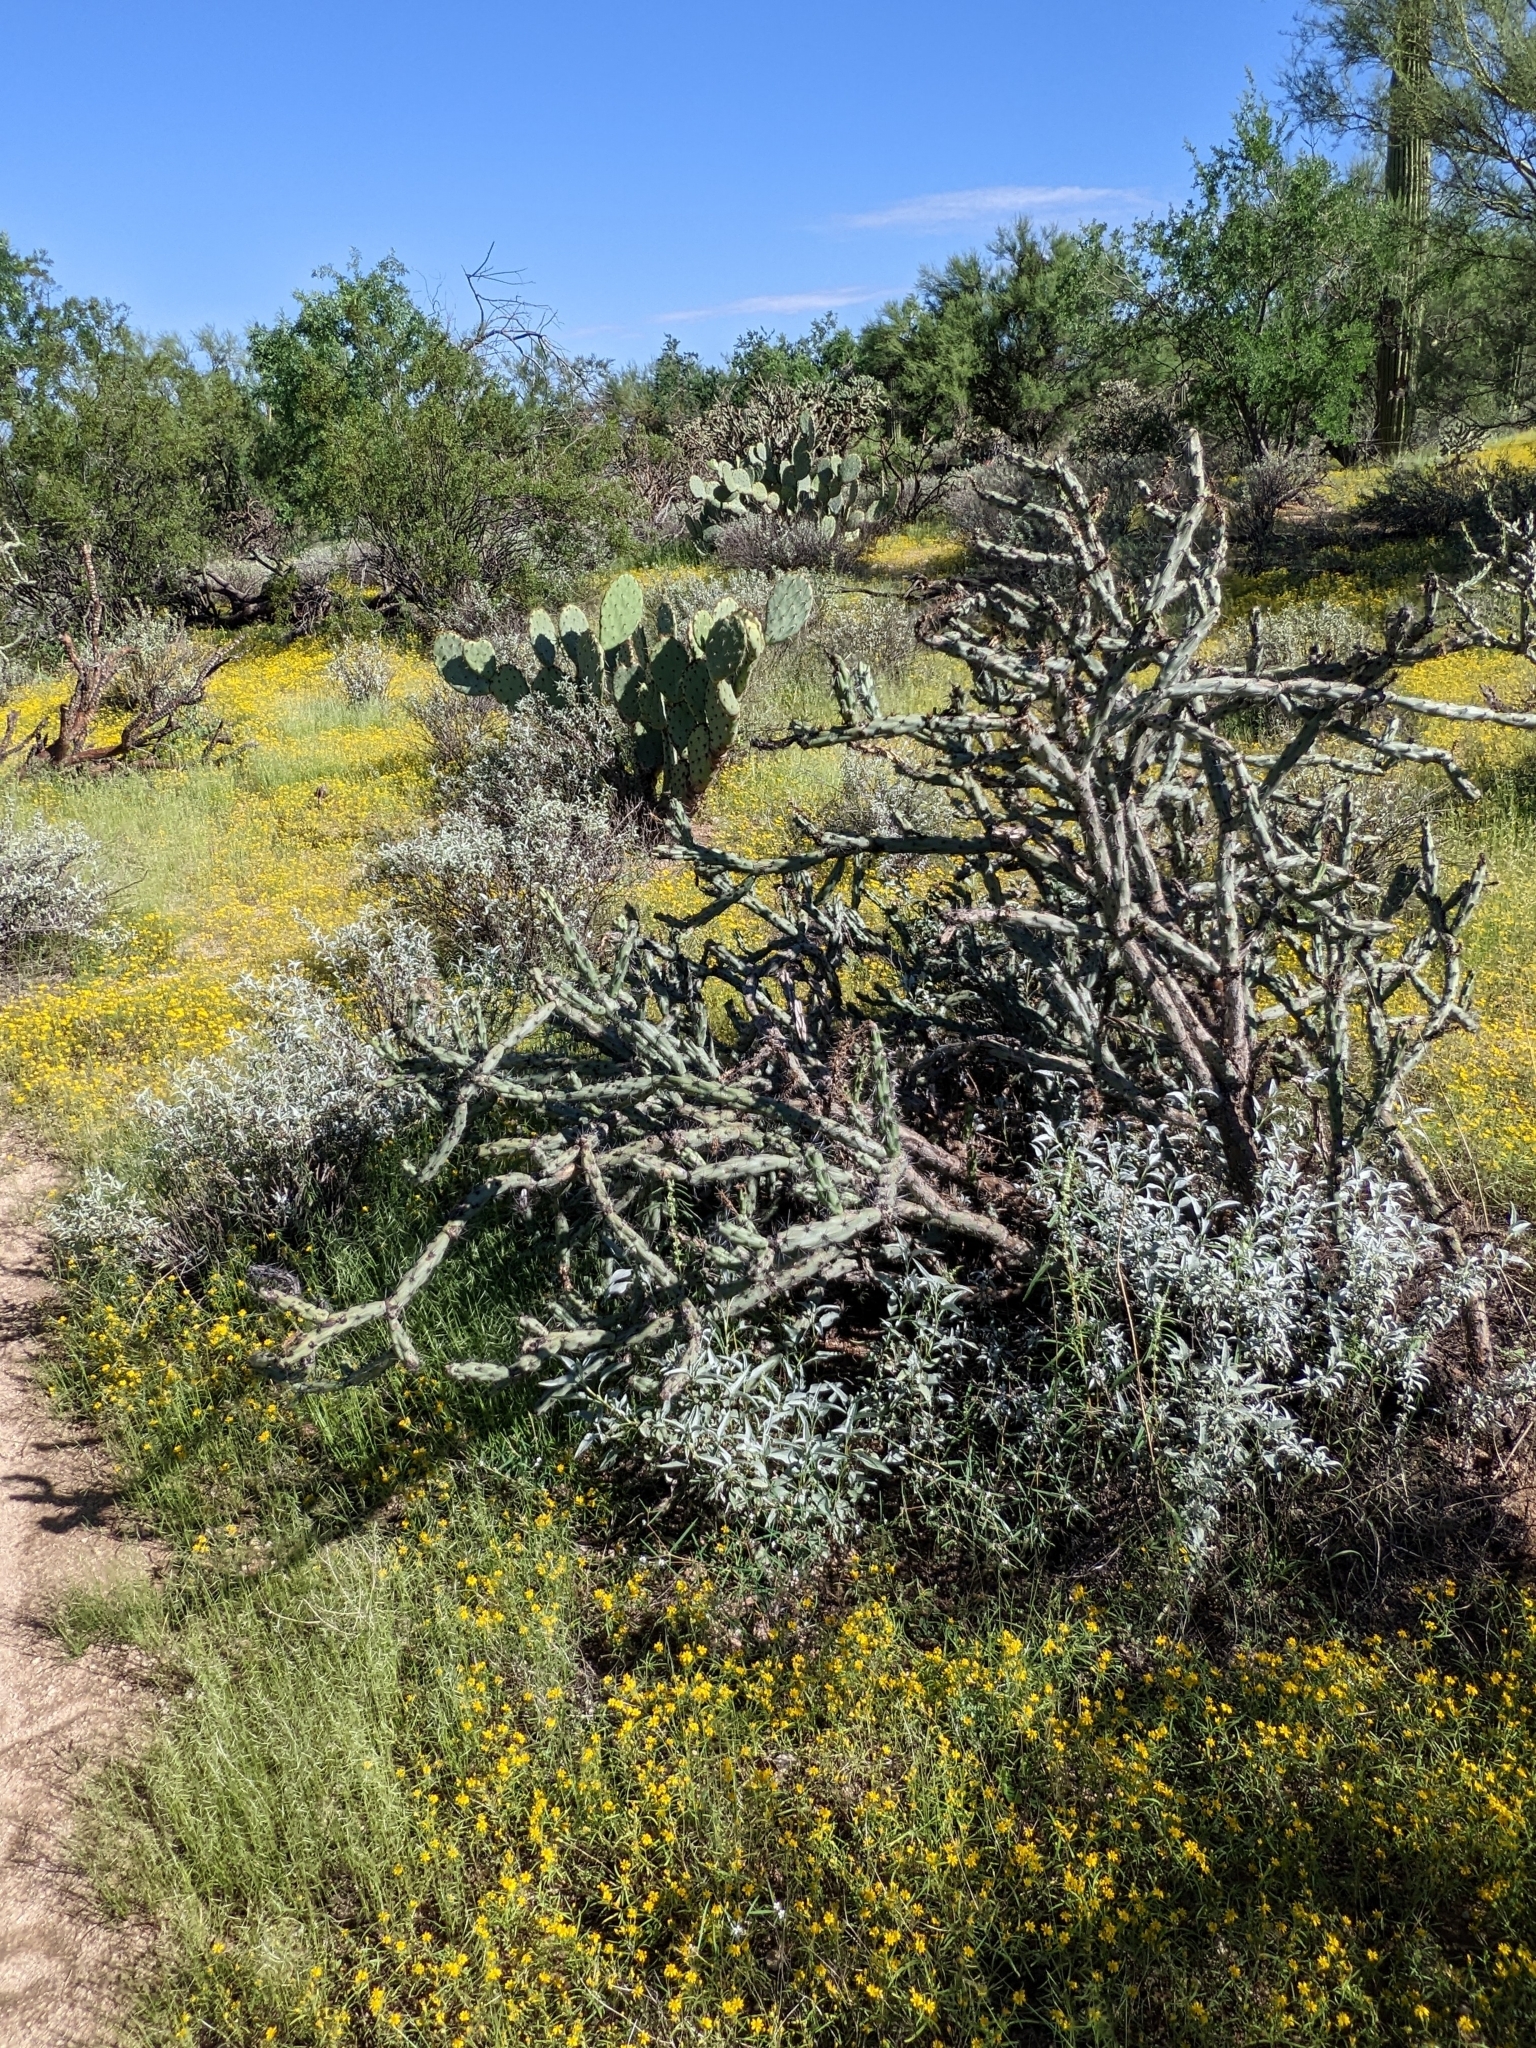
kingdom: Plantae
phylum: Tracheophyta
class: Magnoliopsida
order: Caryophyllales
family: Cactaceae
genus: Cylindropuntia
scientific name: Cylindropuntia thurberi
